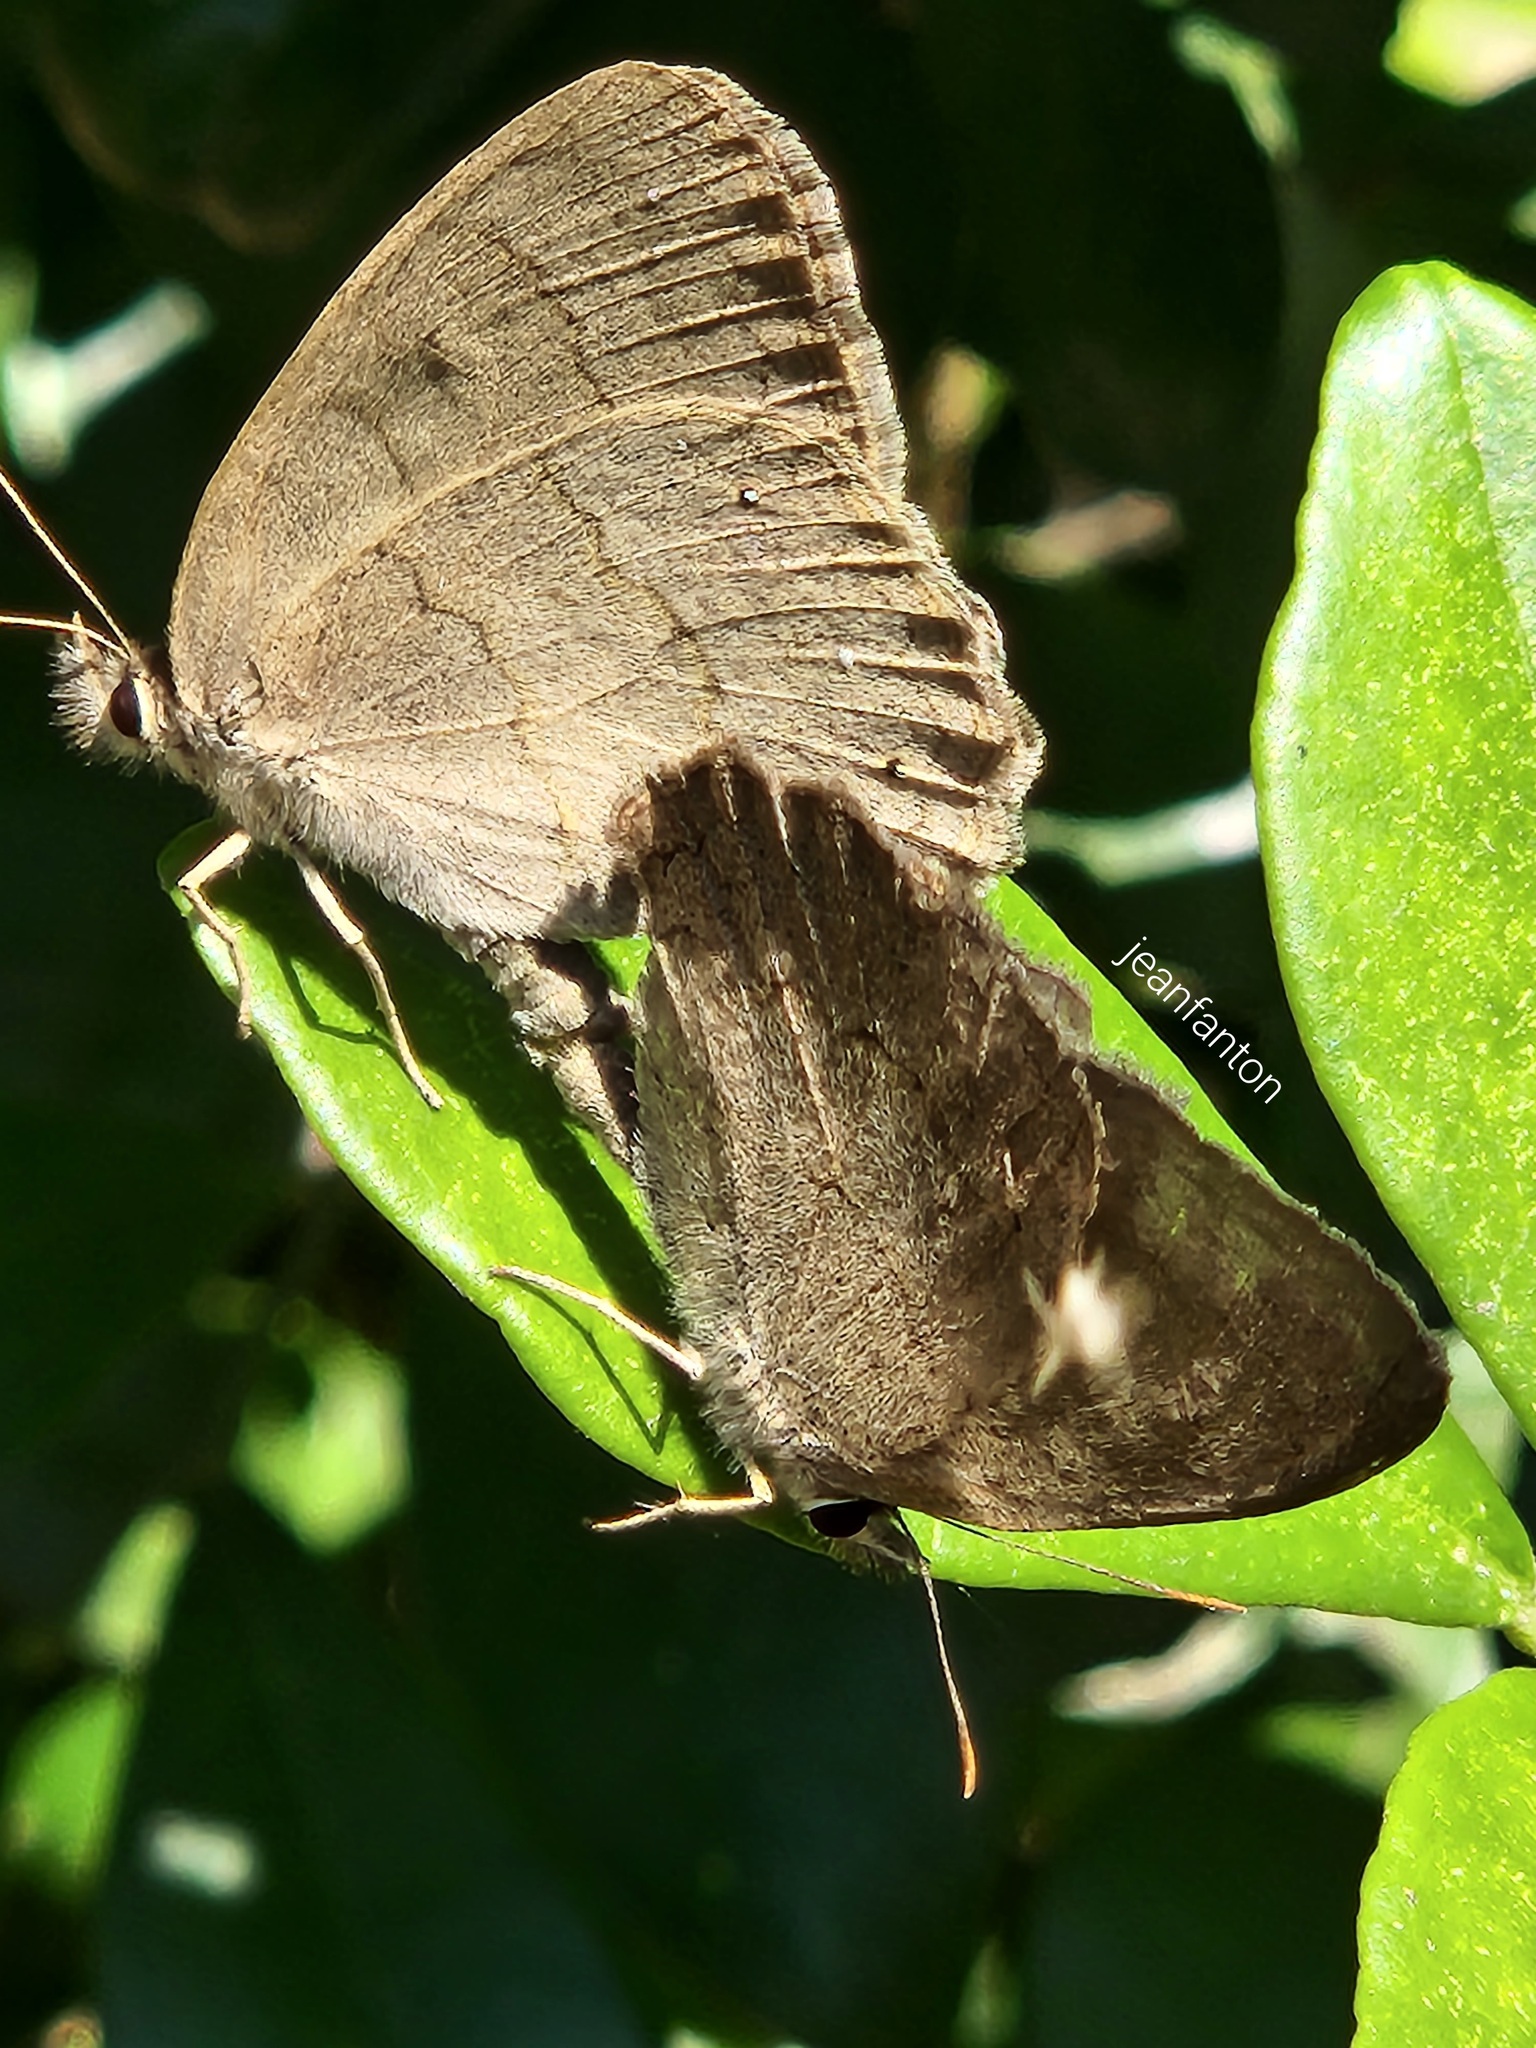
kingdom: Animalia
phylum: Arthropoda
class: Insecta
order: Lepidoptera
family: Nymphalidae
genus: Euptychia
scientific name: Euptychia Cissia eous
